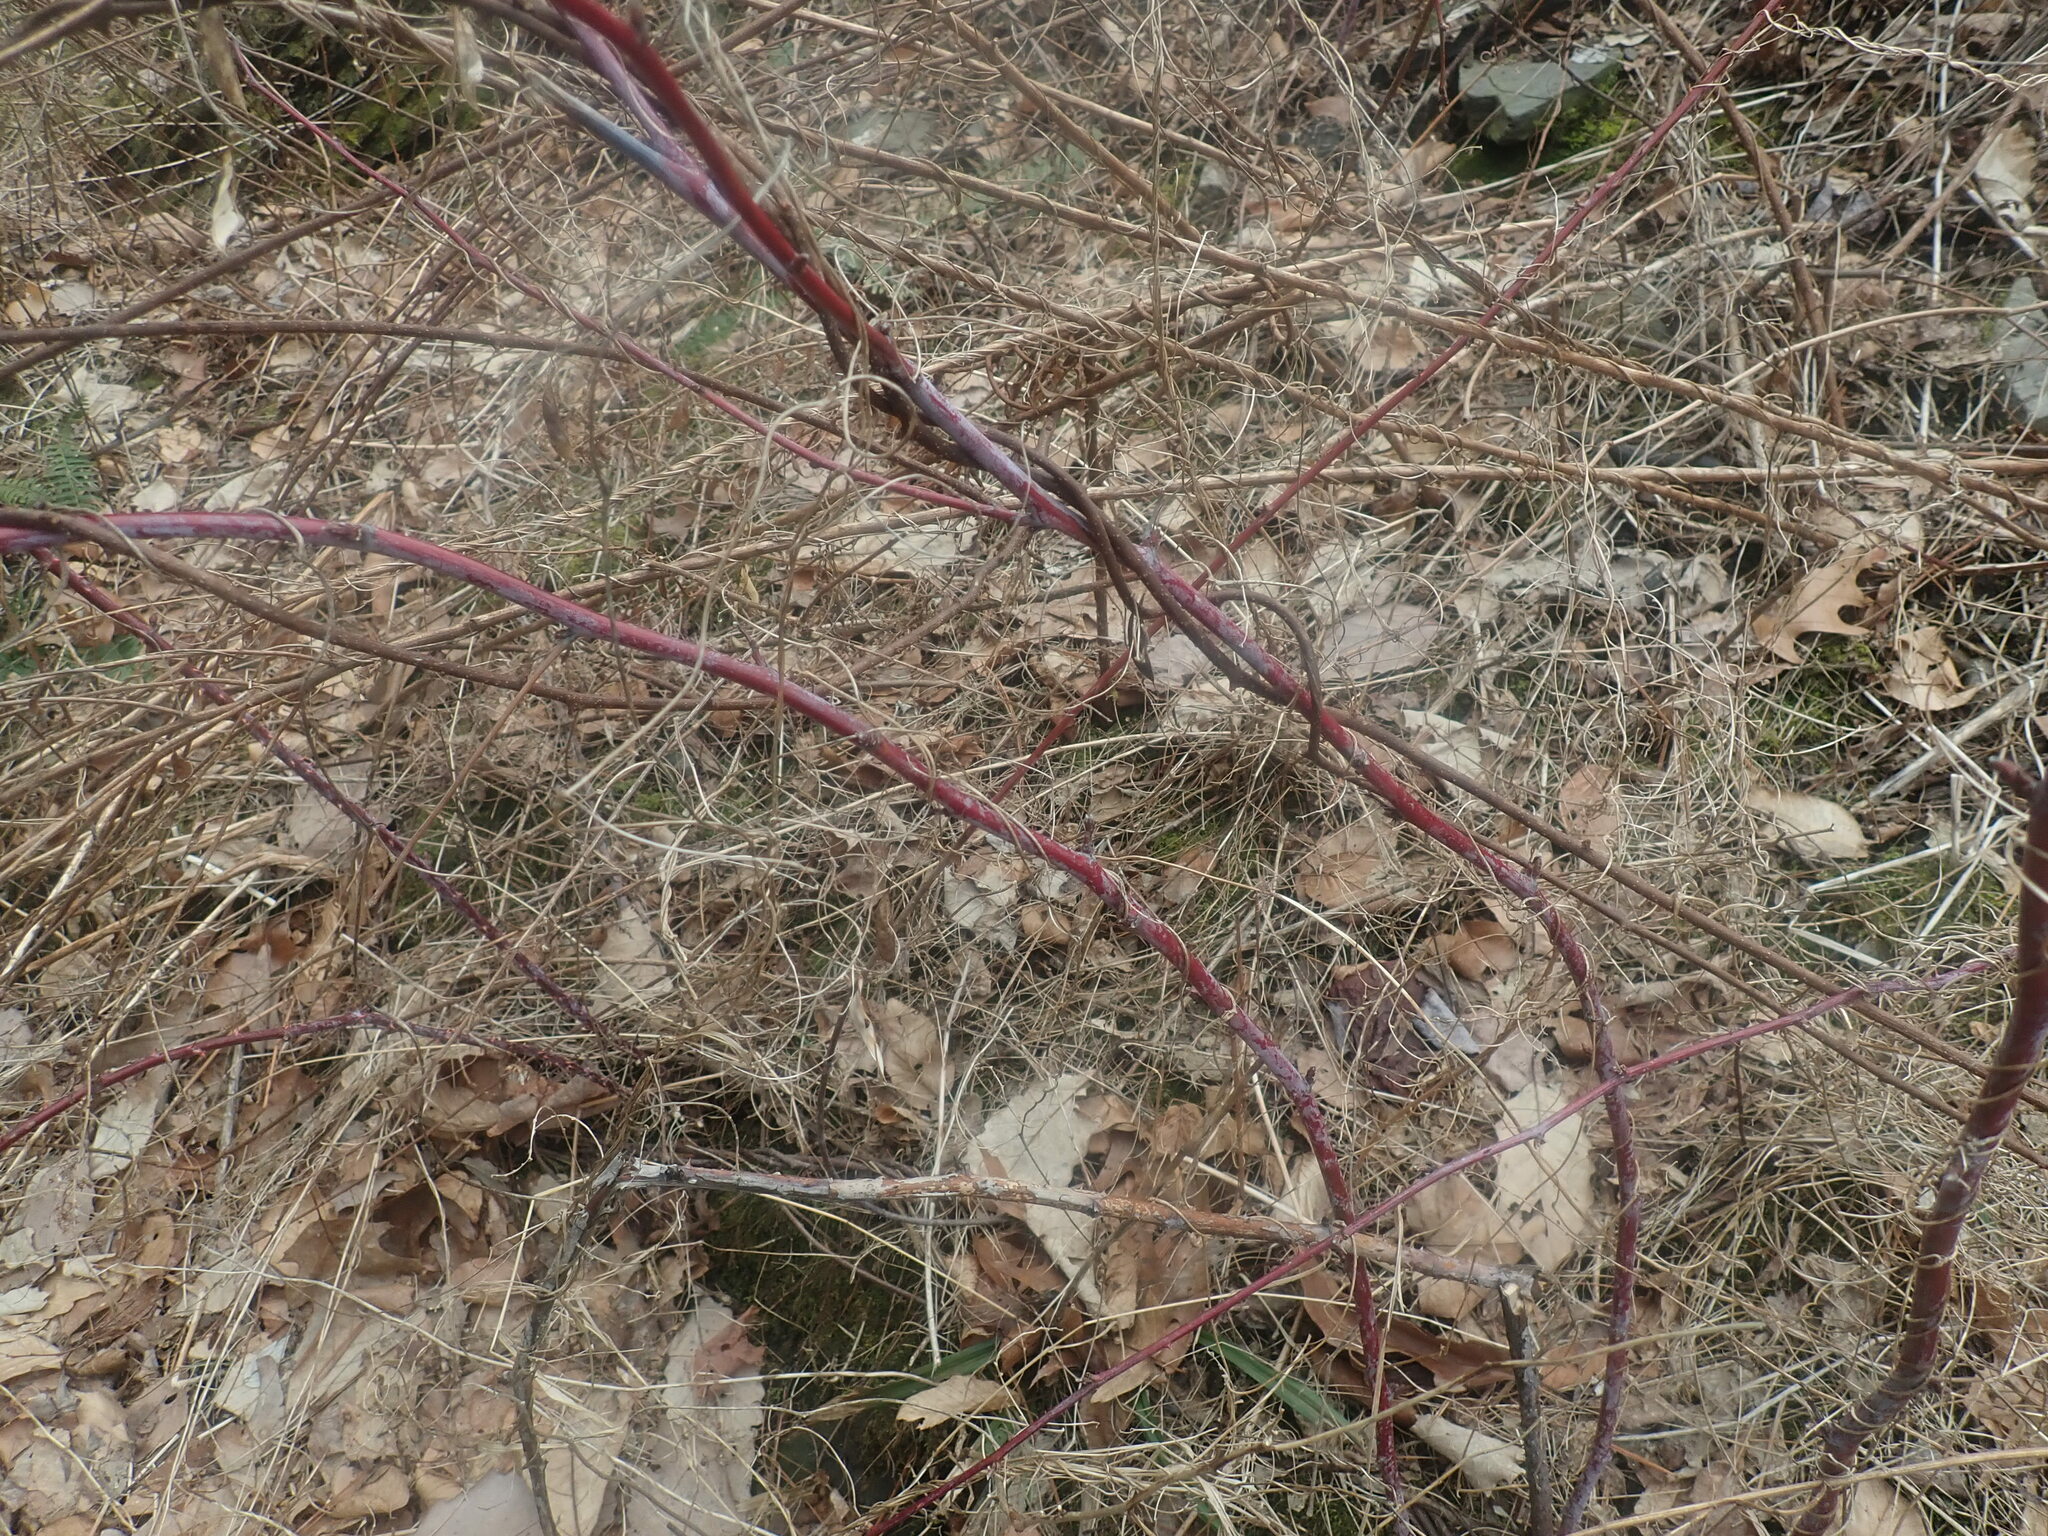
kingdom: Plantae
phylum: Tracheophyta
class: Magnoliopsida
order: Rosales
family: Rosaceae
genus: Rubus
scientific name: Rubus occidentalis
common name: Black raspberry
